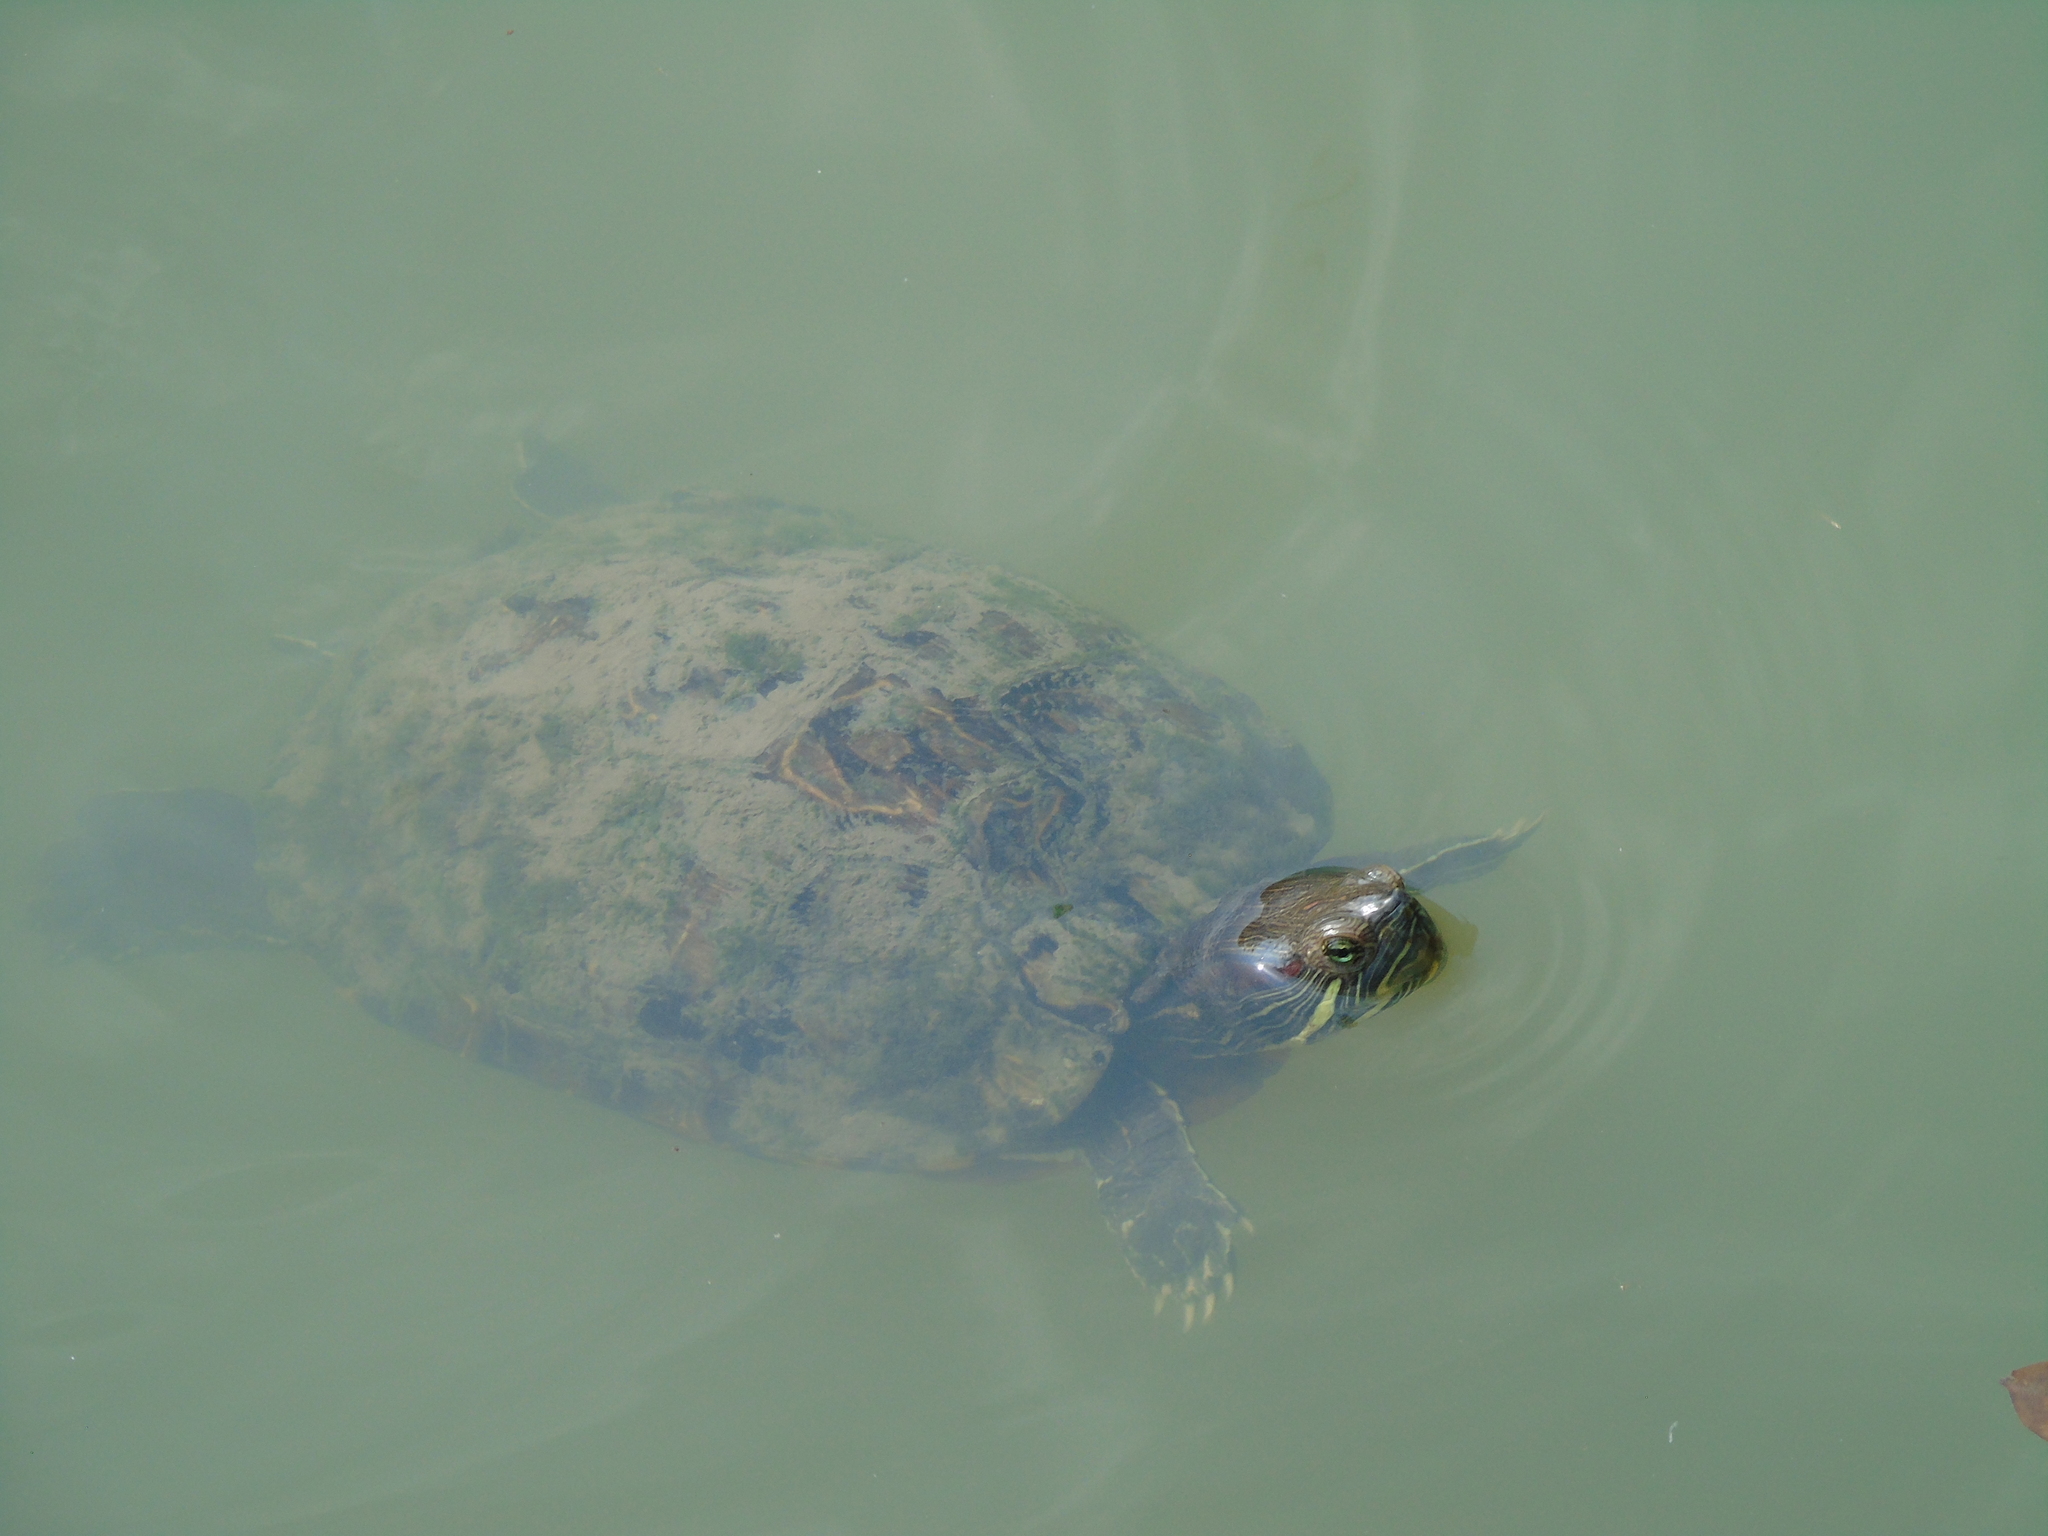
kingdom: Animalia
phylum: Chordata
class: Testudines
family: Emydidae
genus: Trachemys
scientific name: Trachemys scripta
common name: Slider
